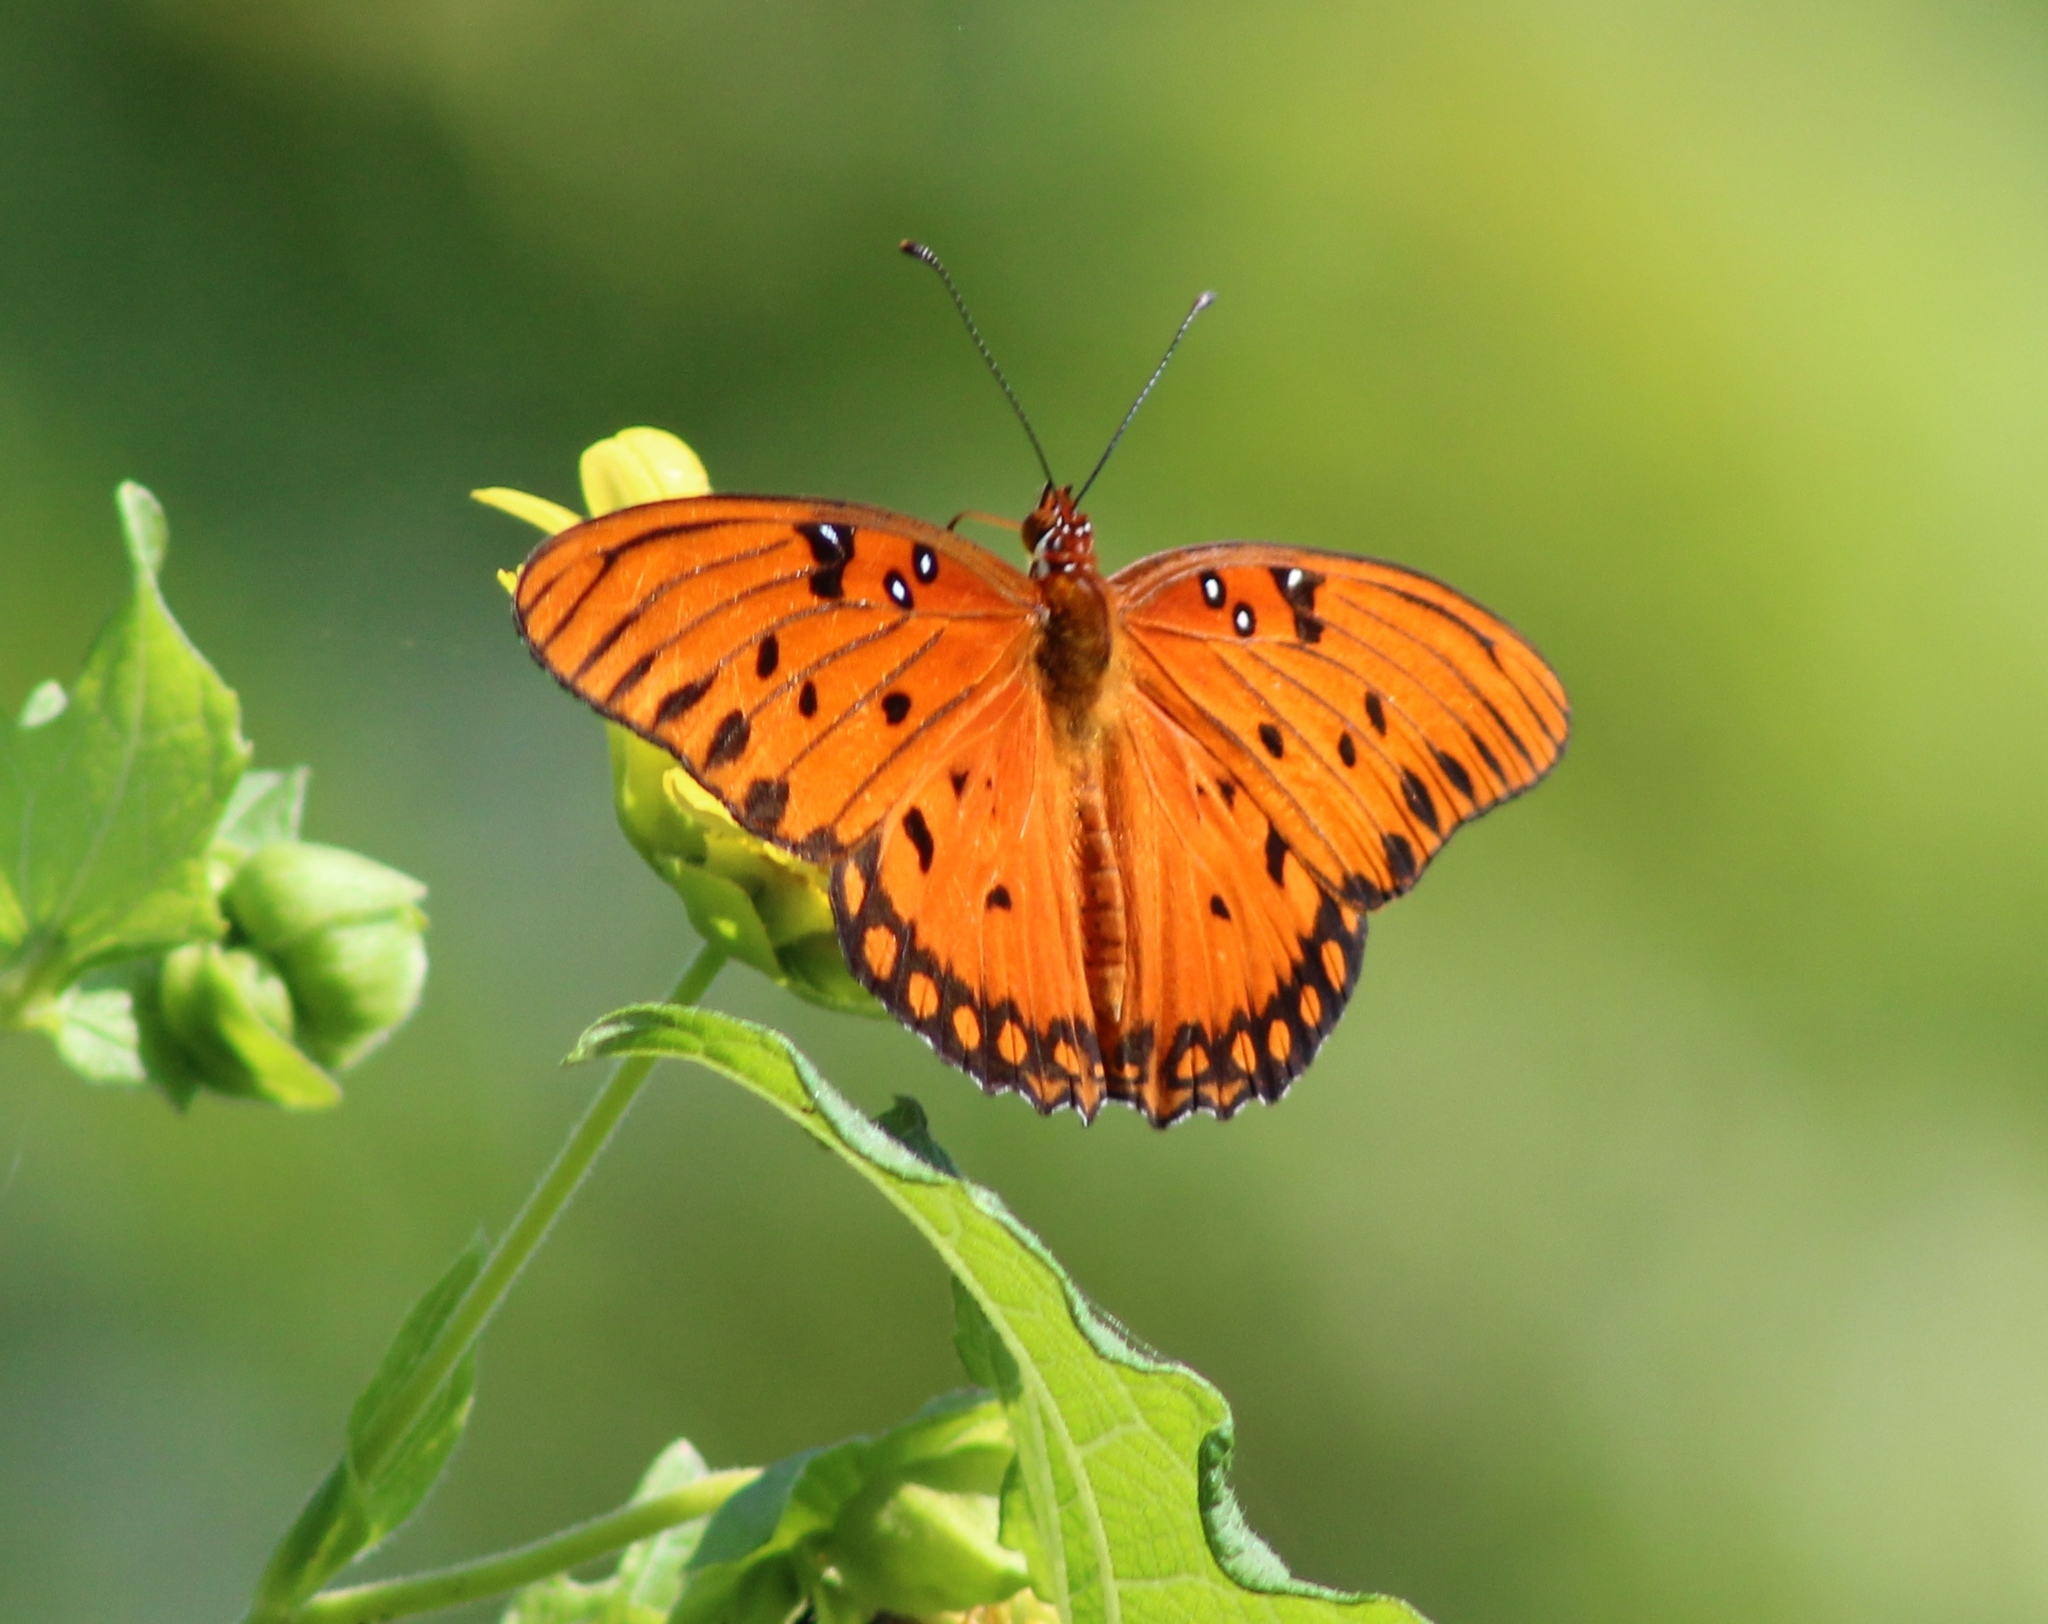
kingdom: Animalia
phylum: Arthropoda
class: Insecta
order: Lepidoptera
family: Nymphalidae
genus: Dione
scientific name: Dione vanillae
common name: Gulf fritillary
